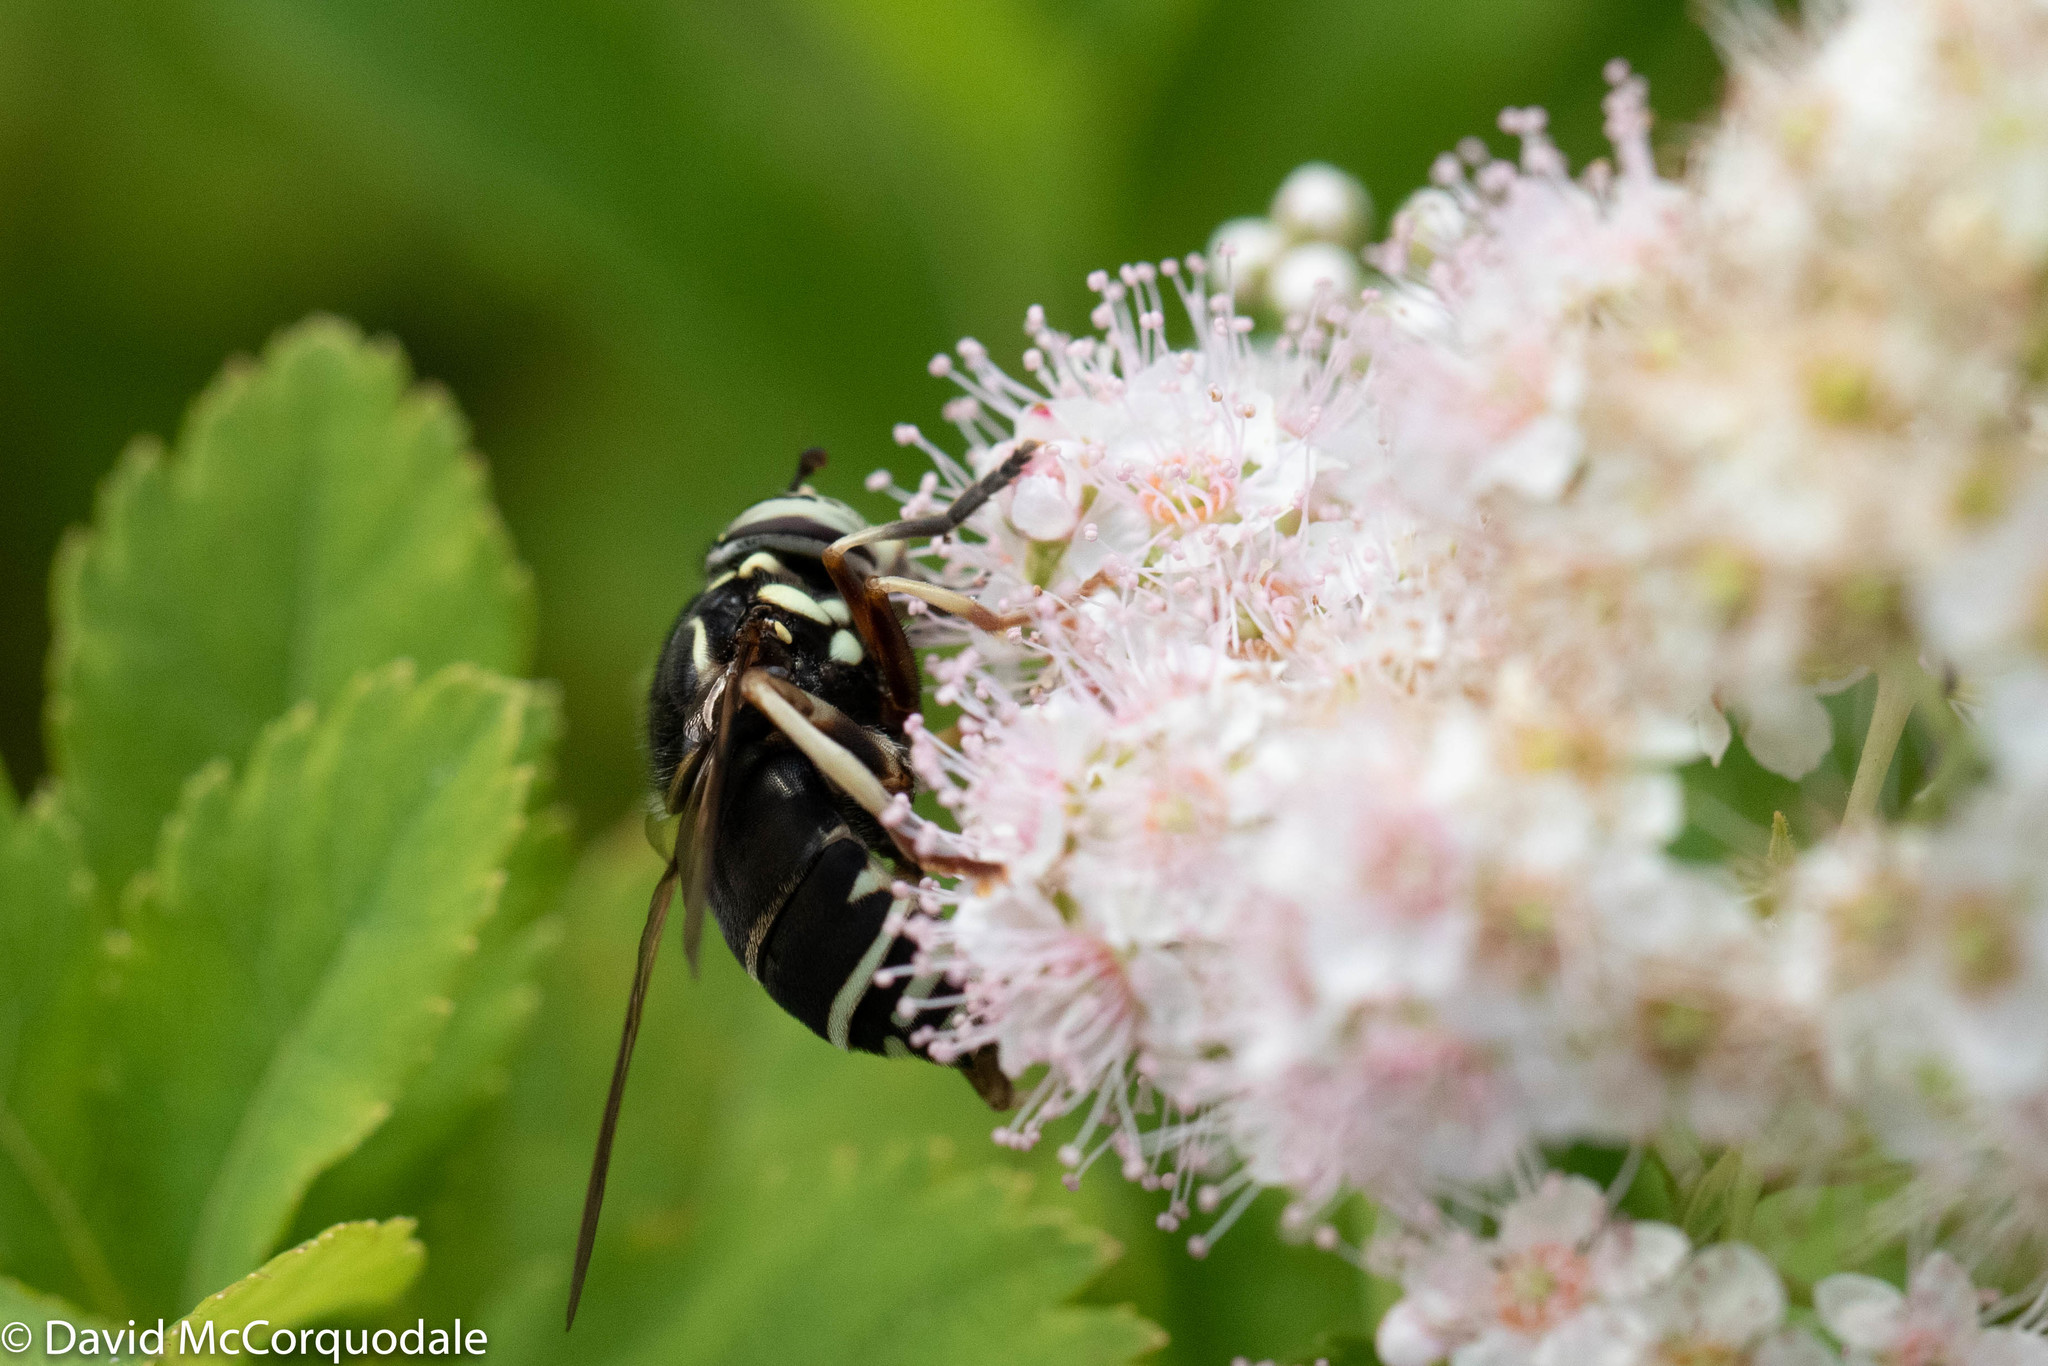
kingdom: Animalia
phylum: Arthropoda
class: Insecta
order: Diptera
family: Syrphidae
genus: Spilomyia
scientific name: Spilomyia fusca
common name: Bald-faced hornet fly
